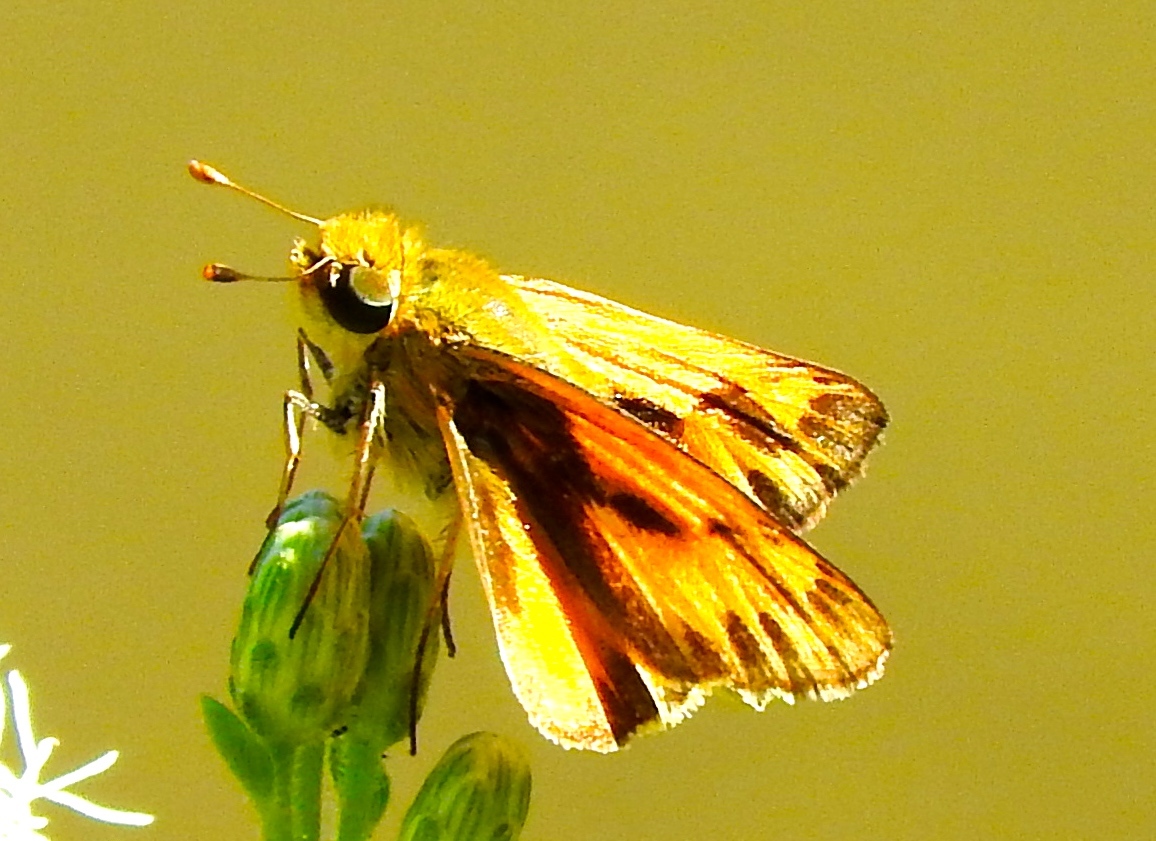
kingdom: Animalia
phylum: Arthropoda
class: Insecta
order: Lepidoptera
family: Hesperiidae
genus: Hylephila
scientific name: Hylephila phyleus
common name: Fiery skipper
